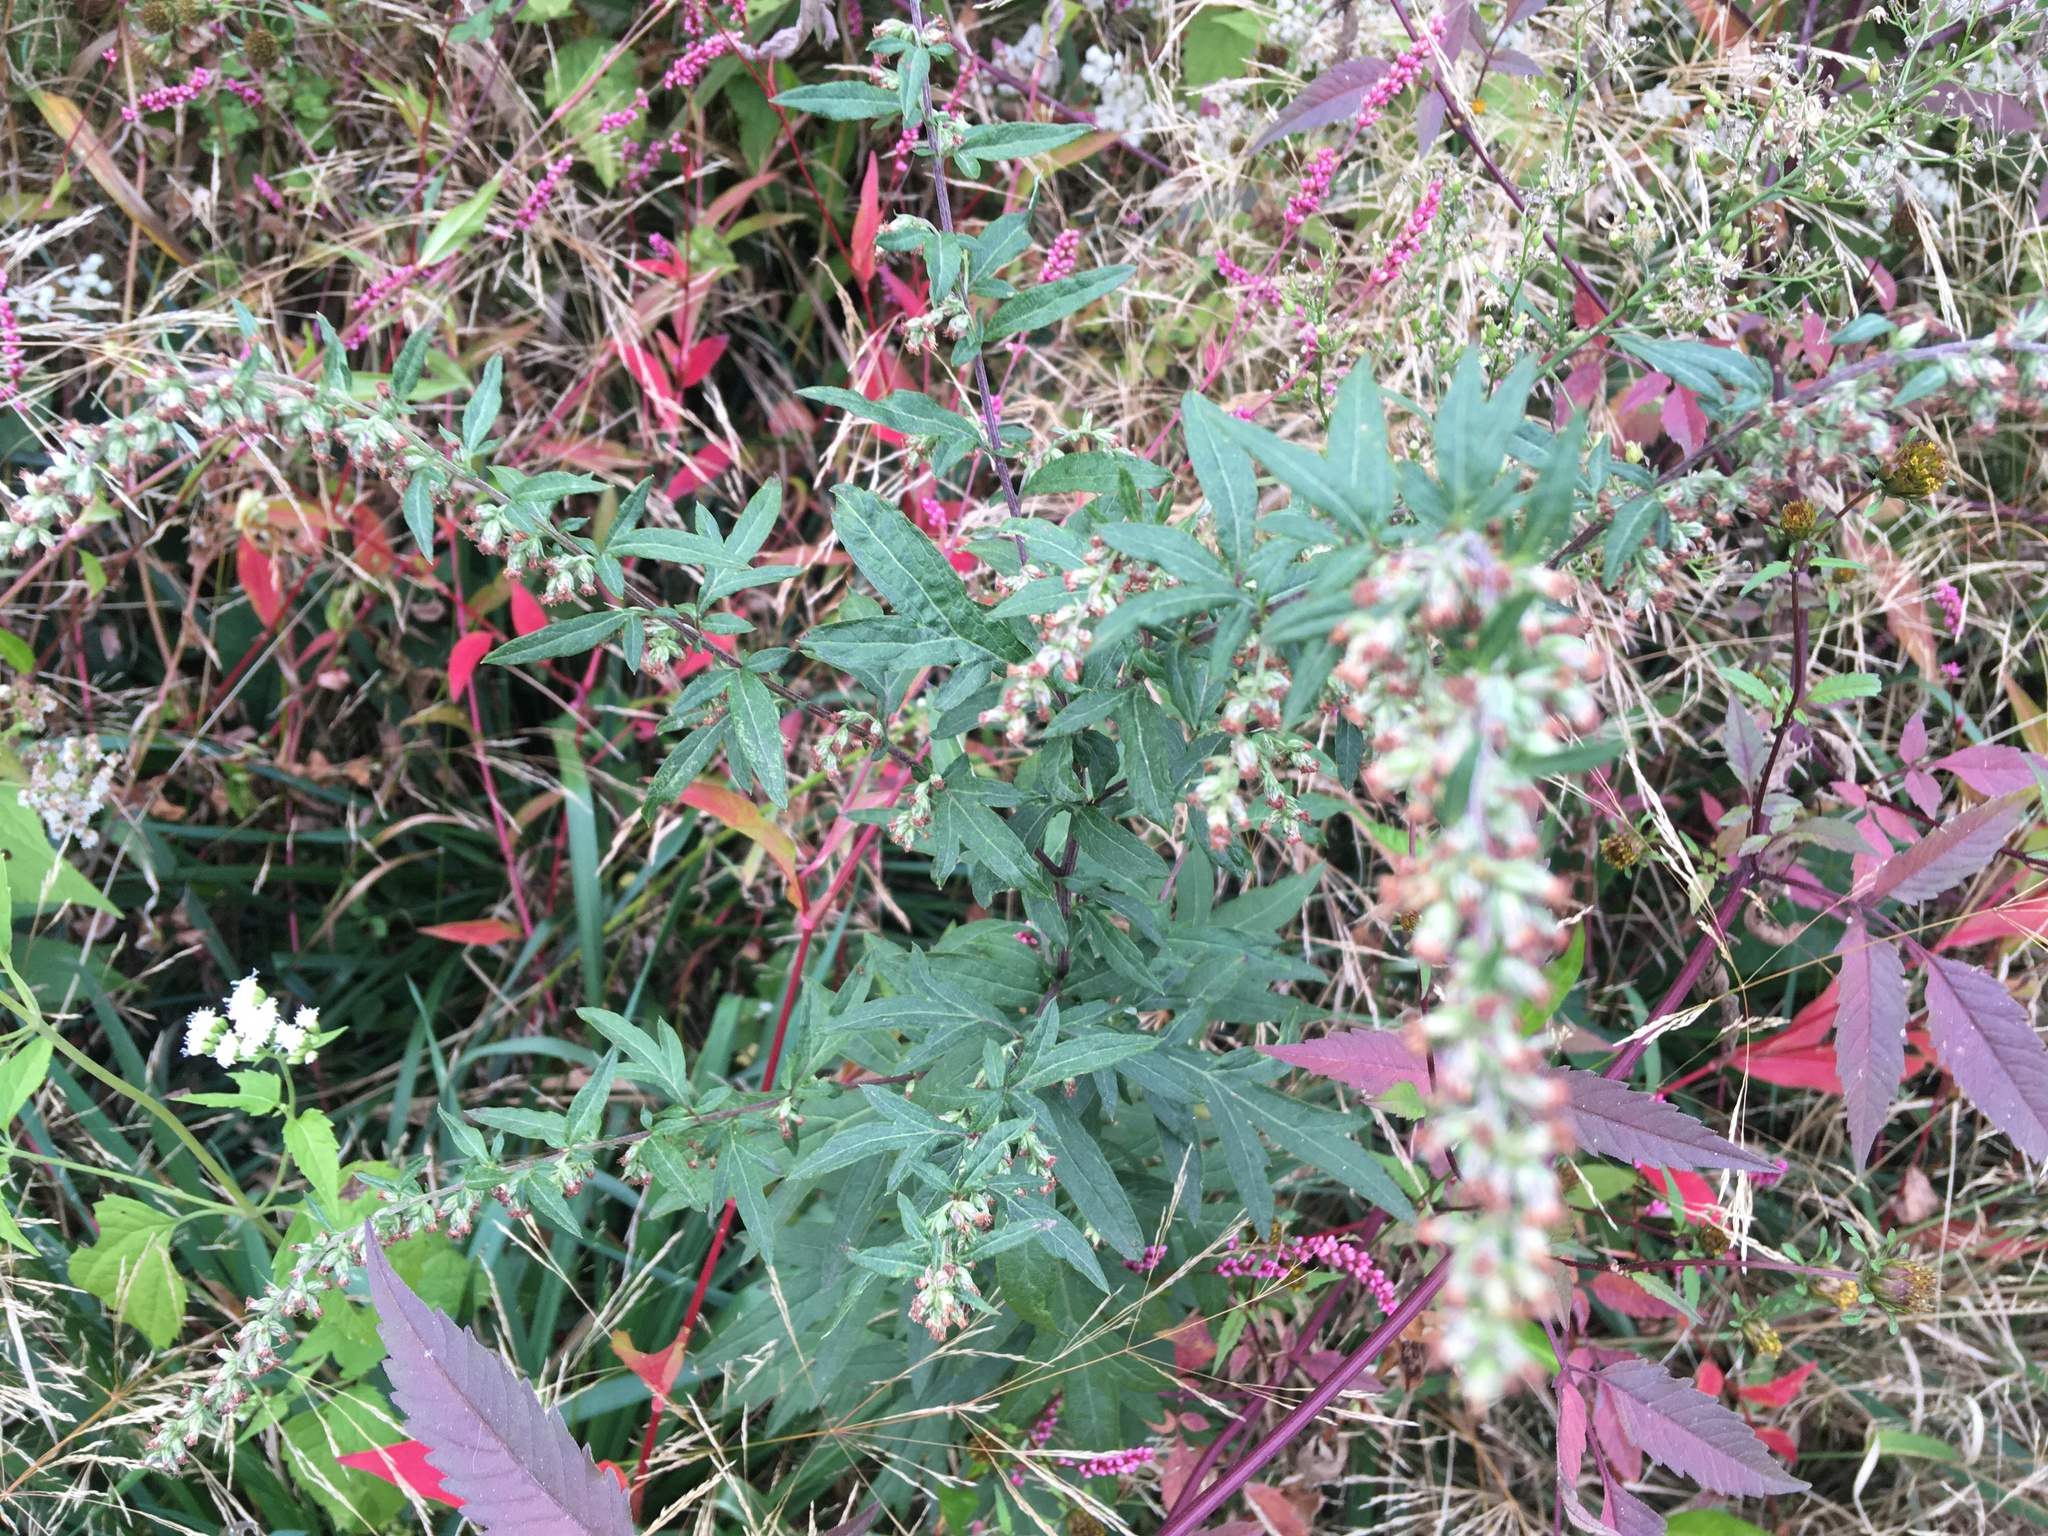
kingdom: Plantae
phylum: Tracheophyta
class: Magnoliopsida
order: Asterales
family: Asteraceae
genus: Artemisia
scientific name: Artemisia vulgaris
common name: Mugwort
